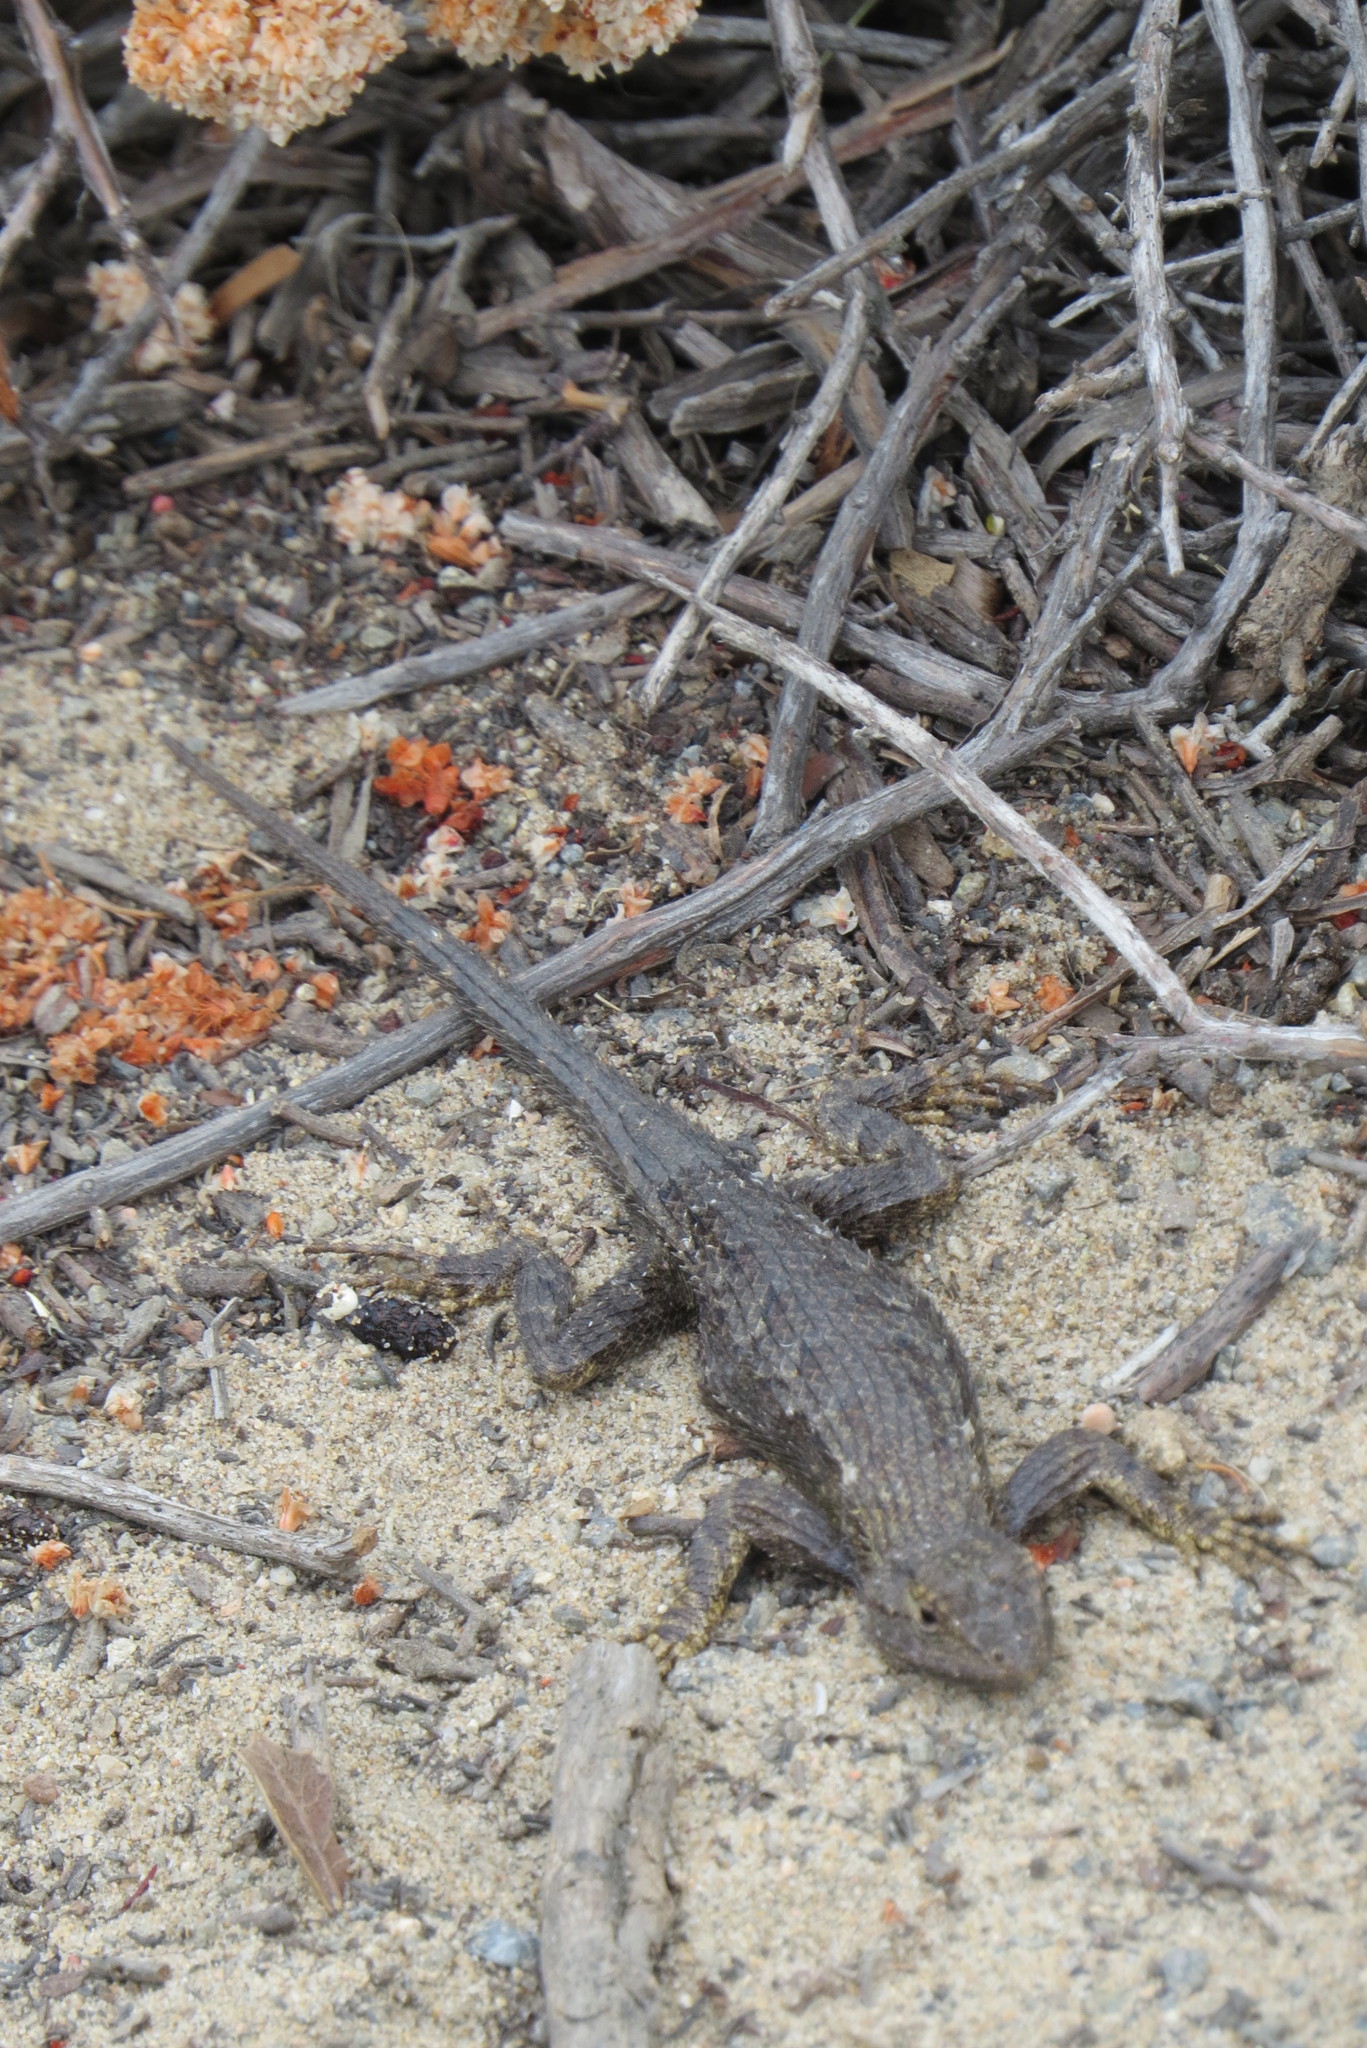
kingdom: Animalia
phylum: Chordata
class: Squamata
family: Phrynosomatidae
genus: Sceloporus
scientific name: Sceloporus occidentalis
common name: Western fence lizard
